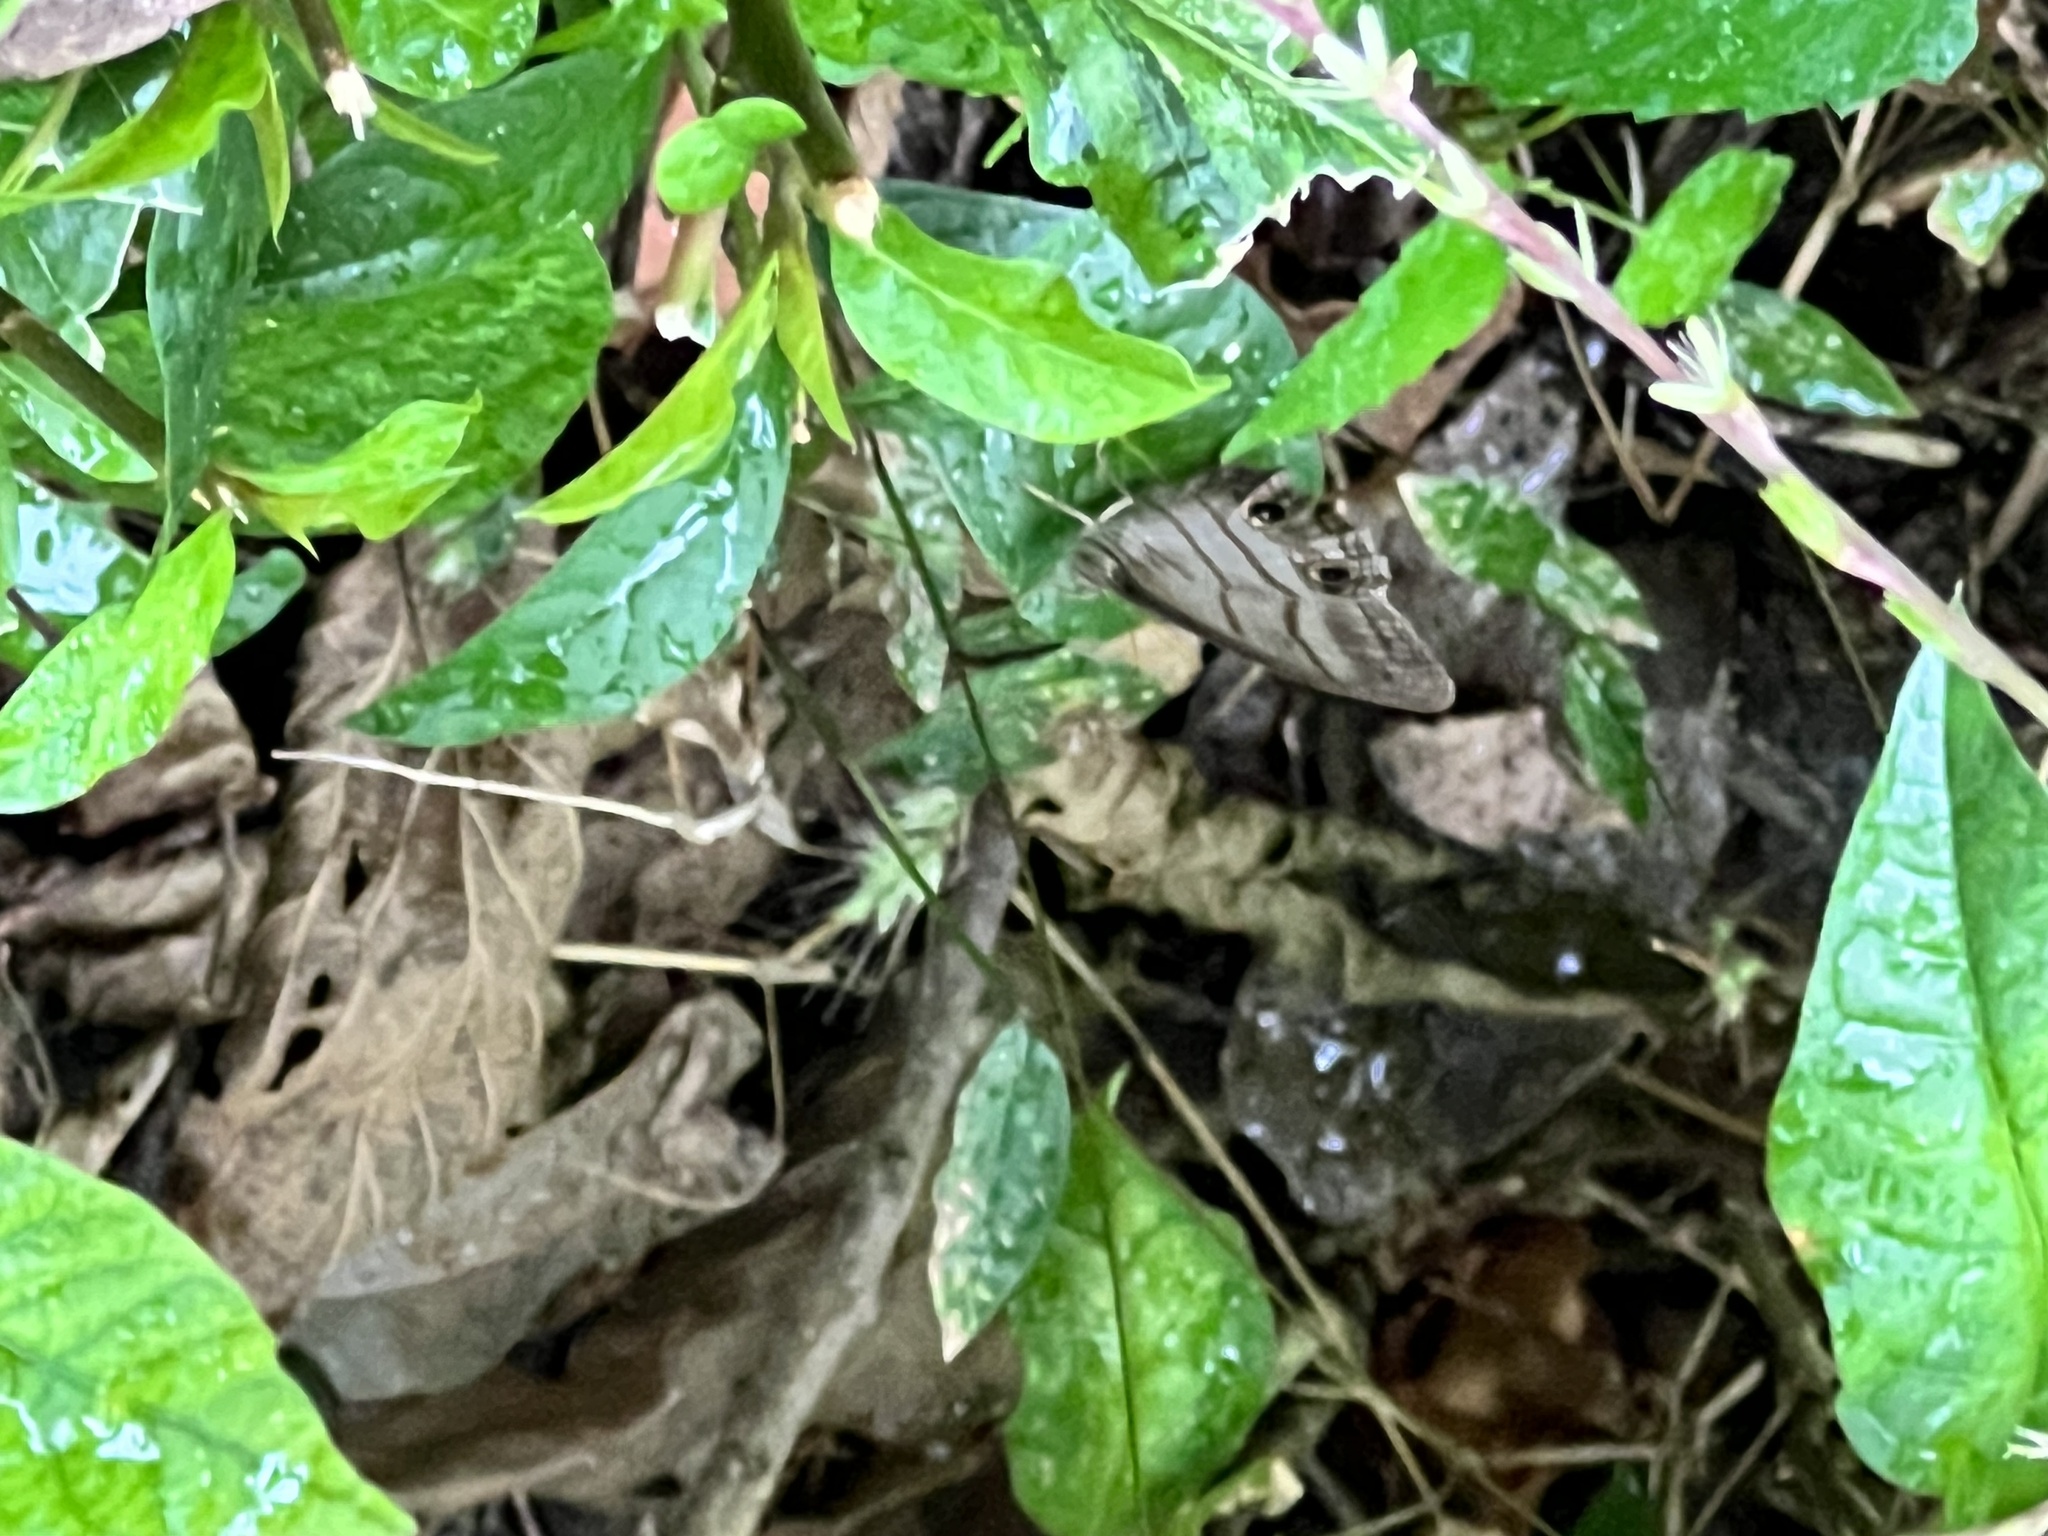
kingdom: Animalia
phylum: Arthropoda
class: Insecta
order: Lepidoptera
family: Nymphalidae
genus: Magneuptychia
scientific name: Magneuptychia libye
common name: Blue-gray satyr
